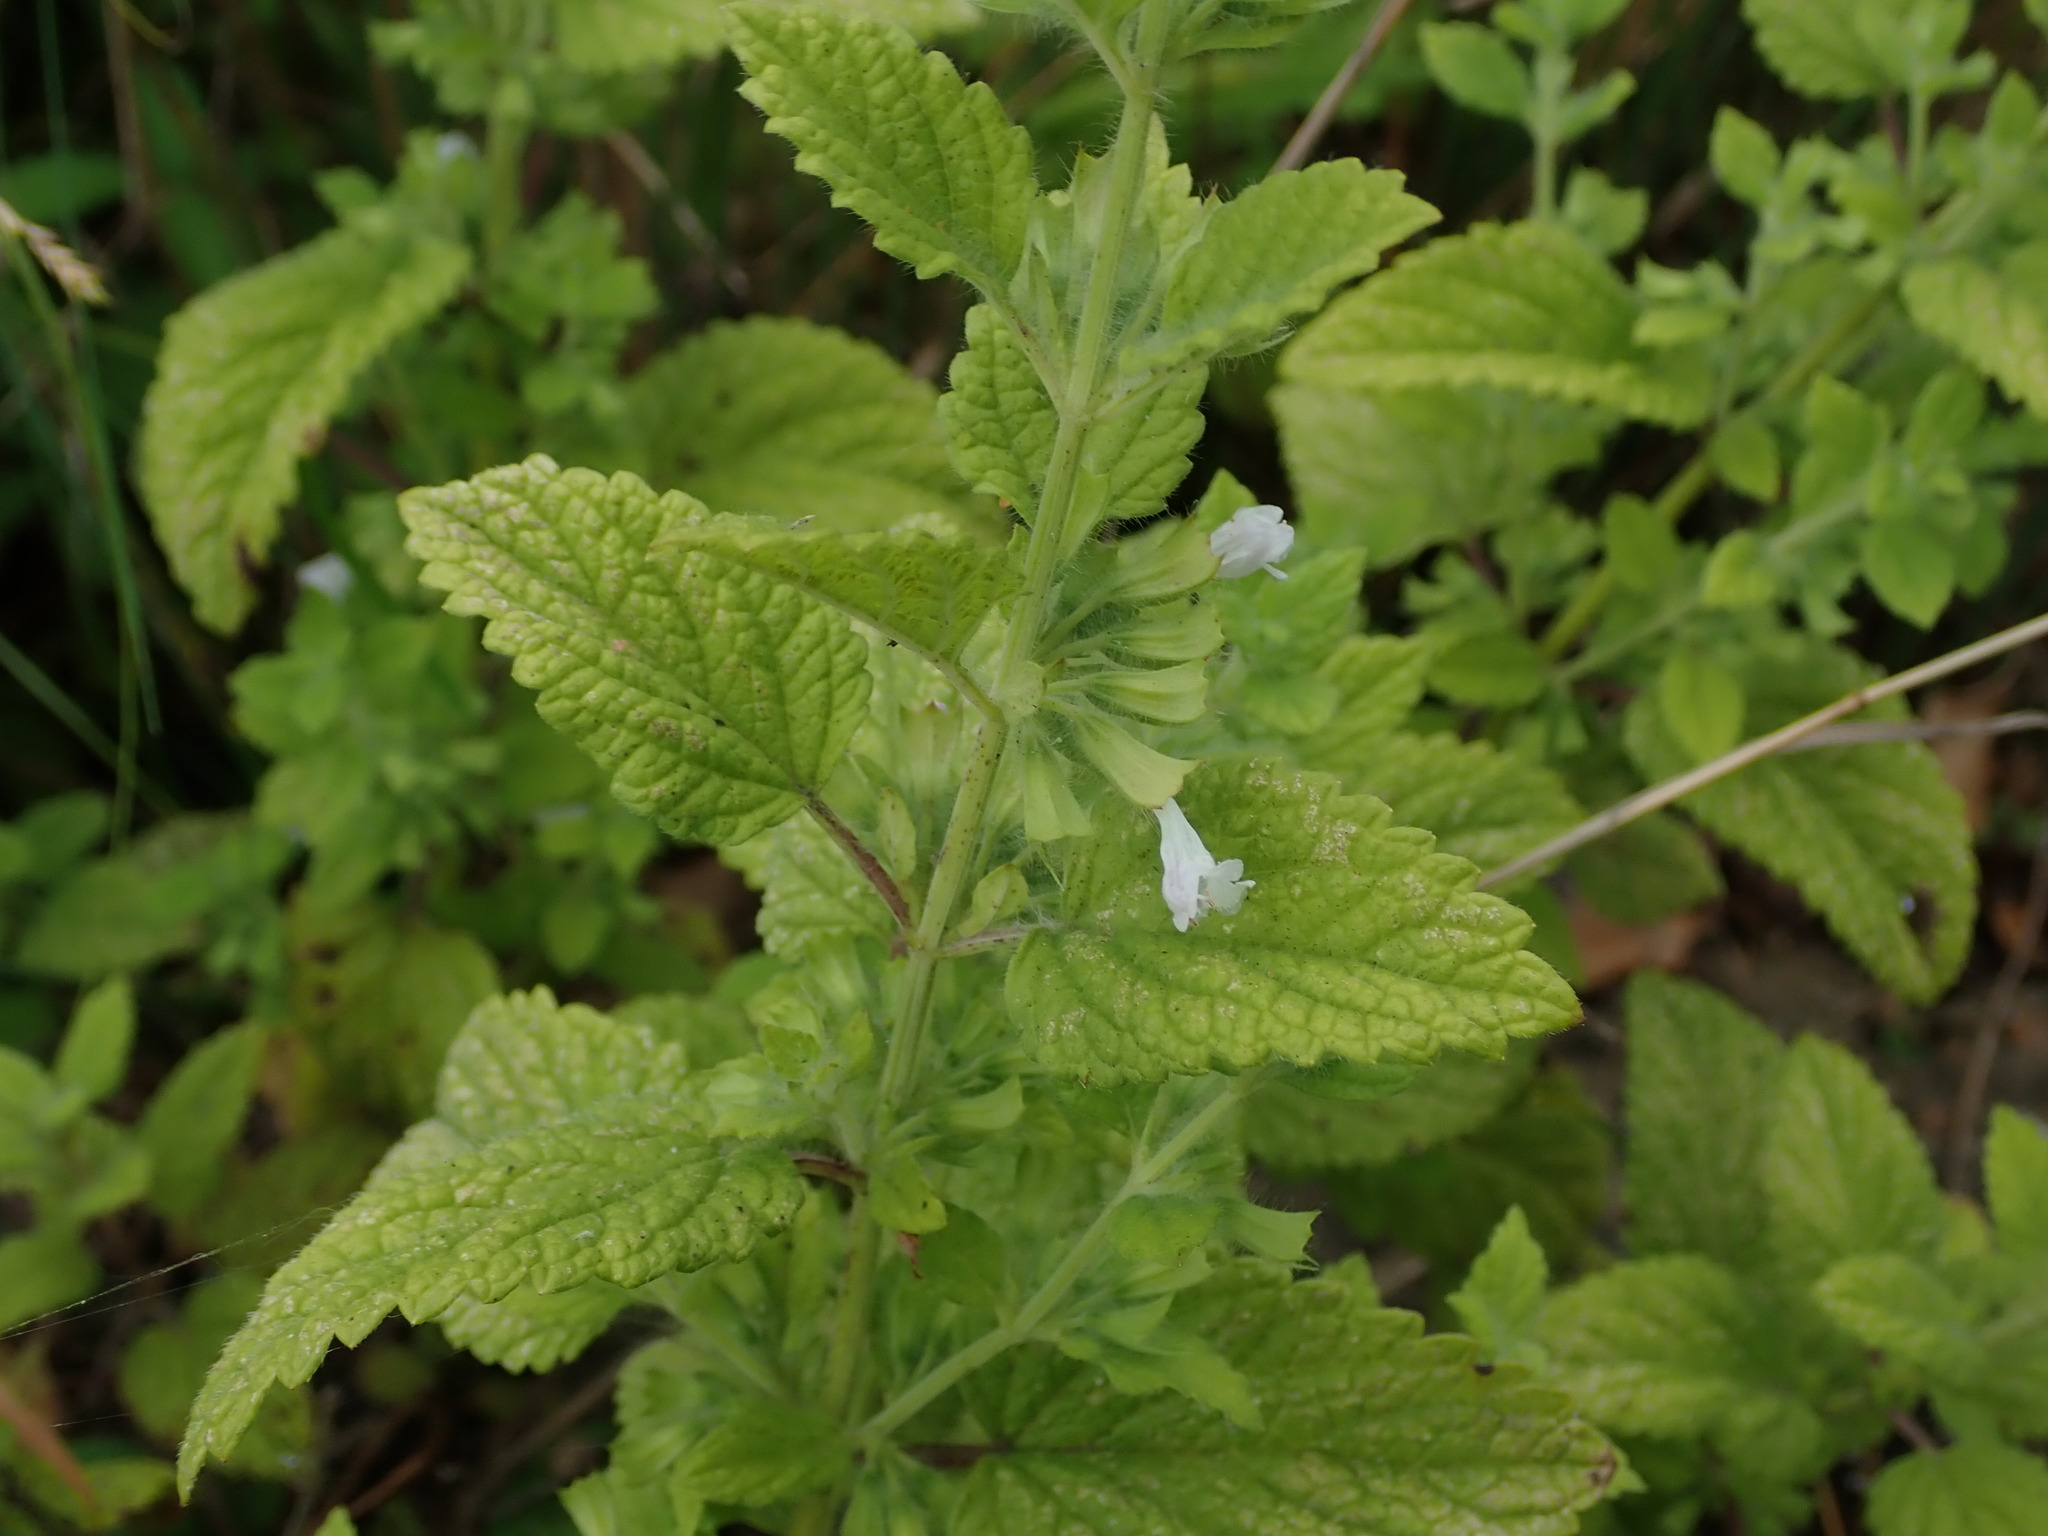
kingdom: Plantae
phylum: Tracheophyta
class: Magnoliopsida
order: Lamiales
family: Lamiaceae
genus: Melissa
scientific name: Melissa officinalis
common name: Balm
